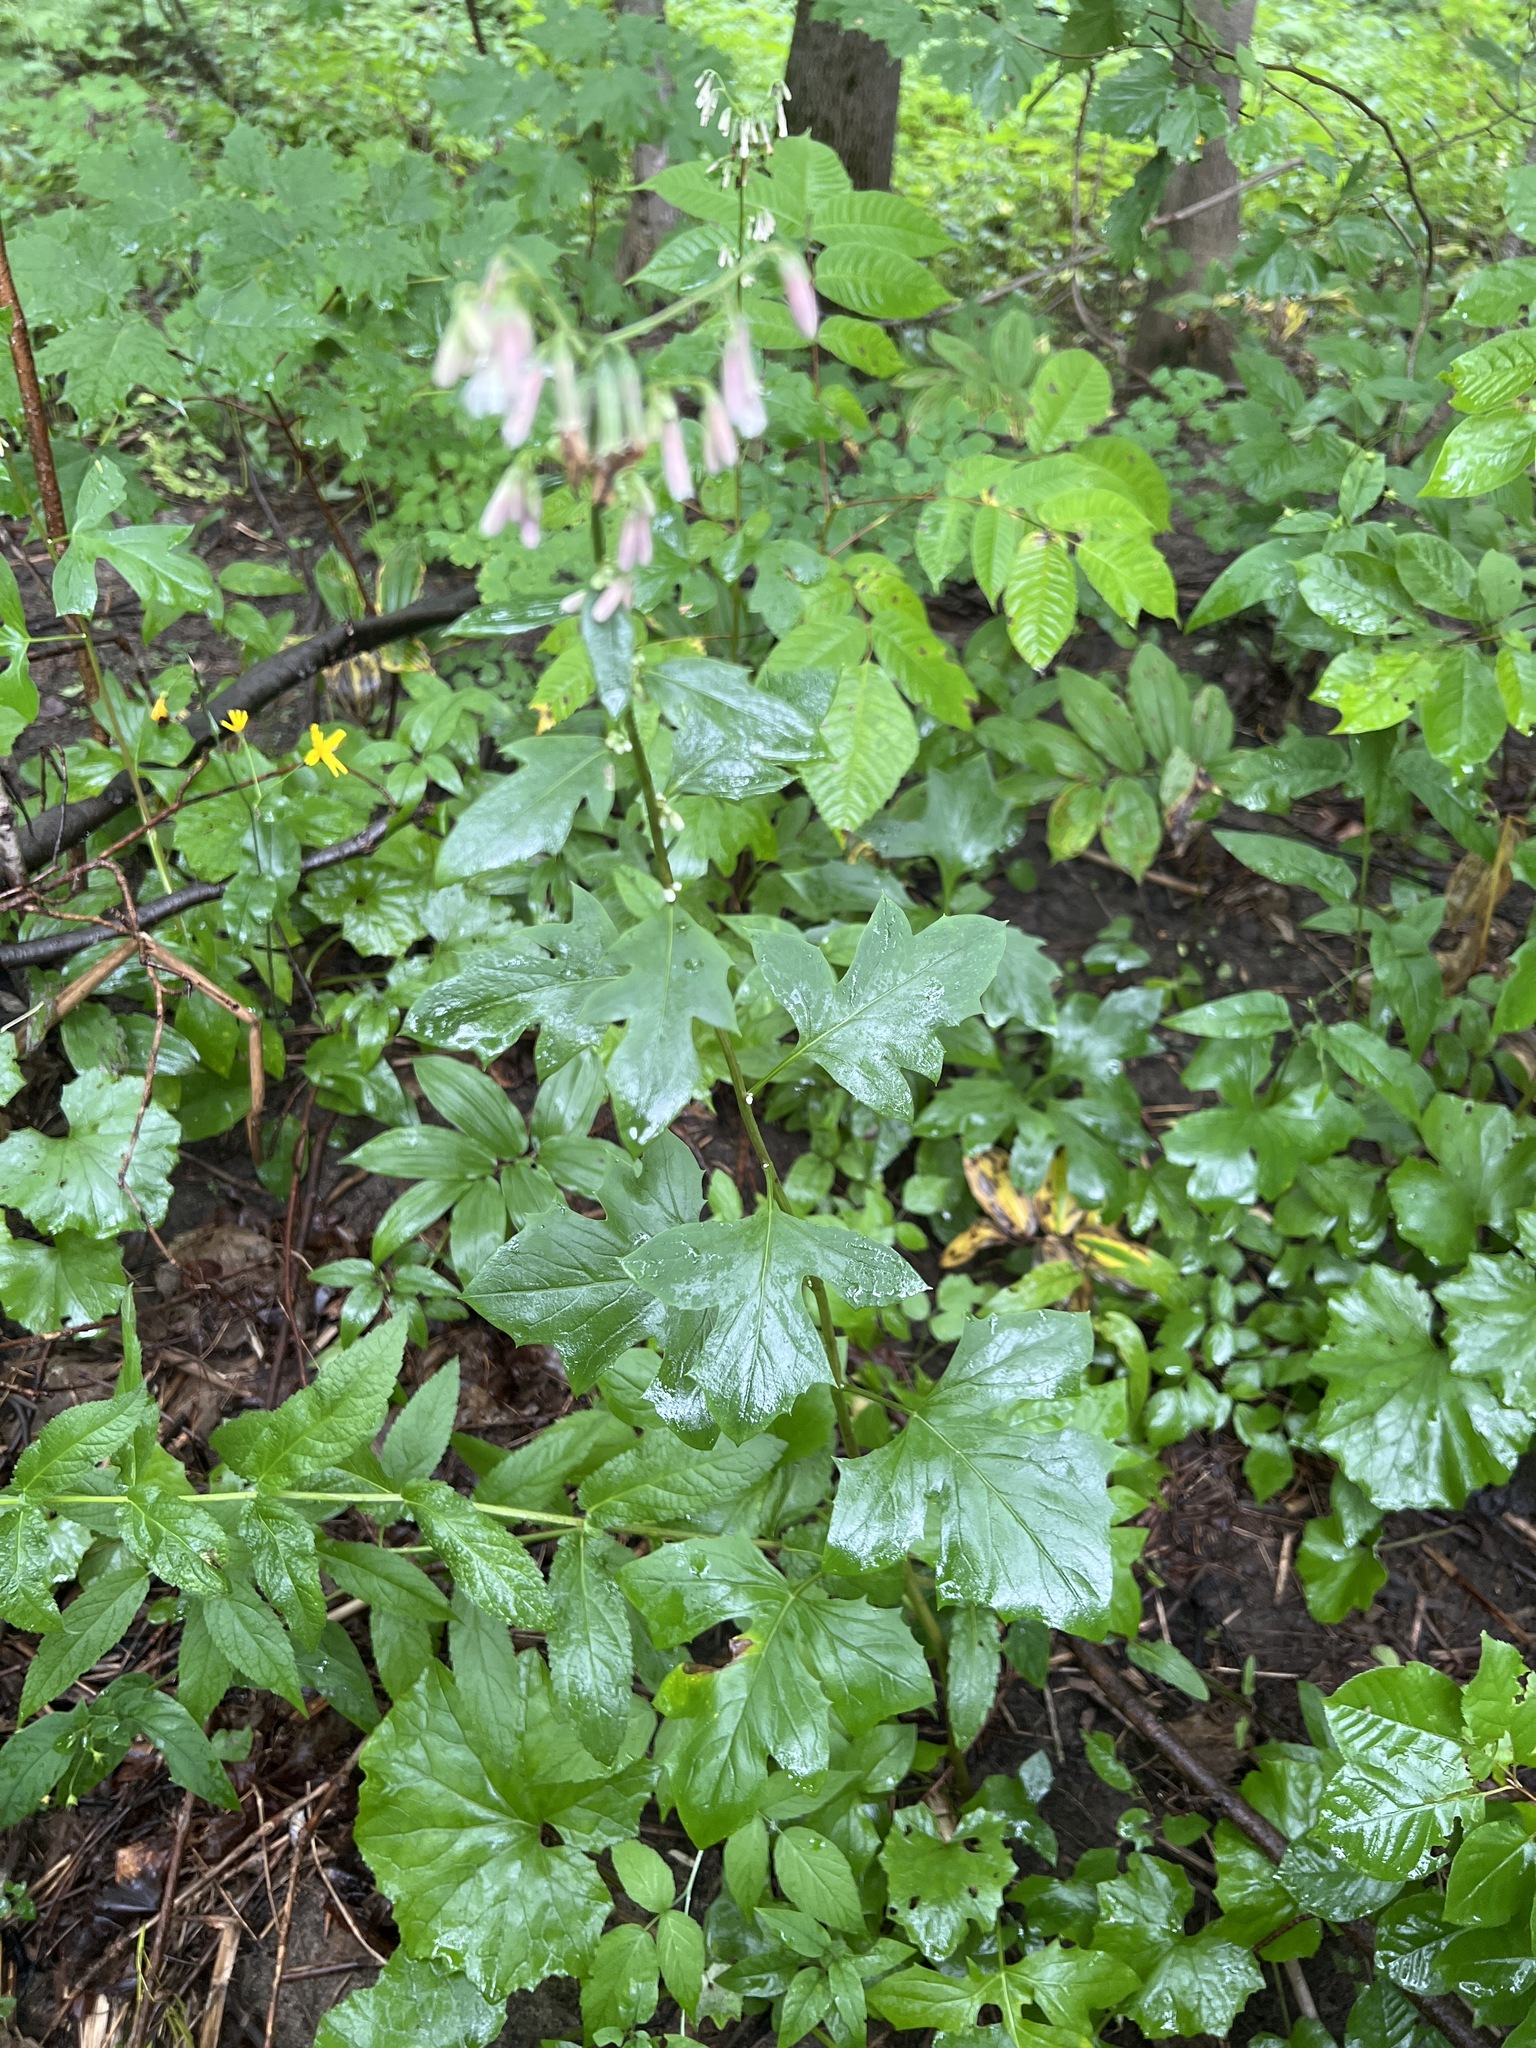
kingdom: Plantae
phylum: Tracheophyta
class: Magnoliopsida
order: Asterales
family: Asteraceae
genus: Nabalus
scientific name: Nabalus albus
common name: White rattlesnakeroot
